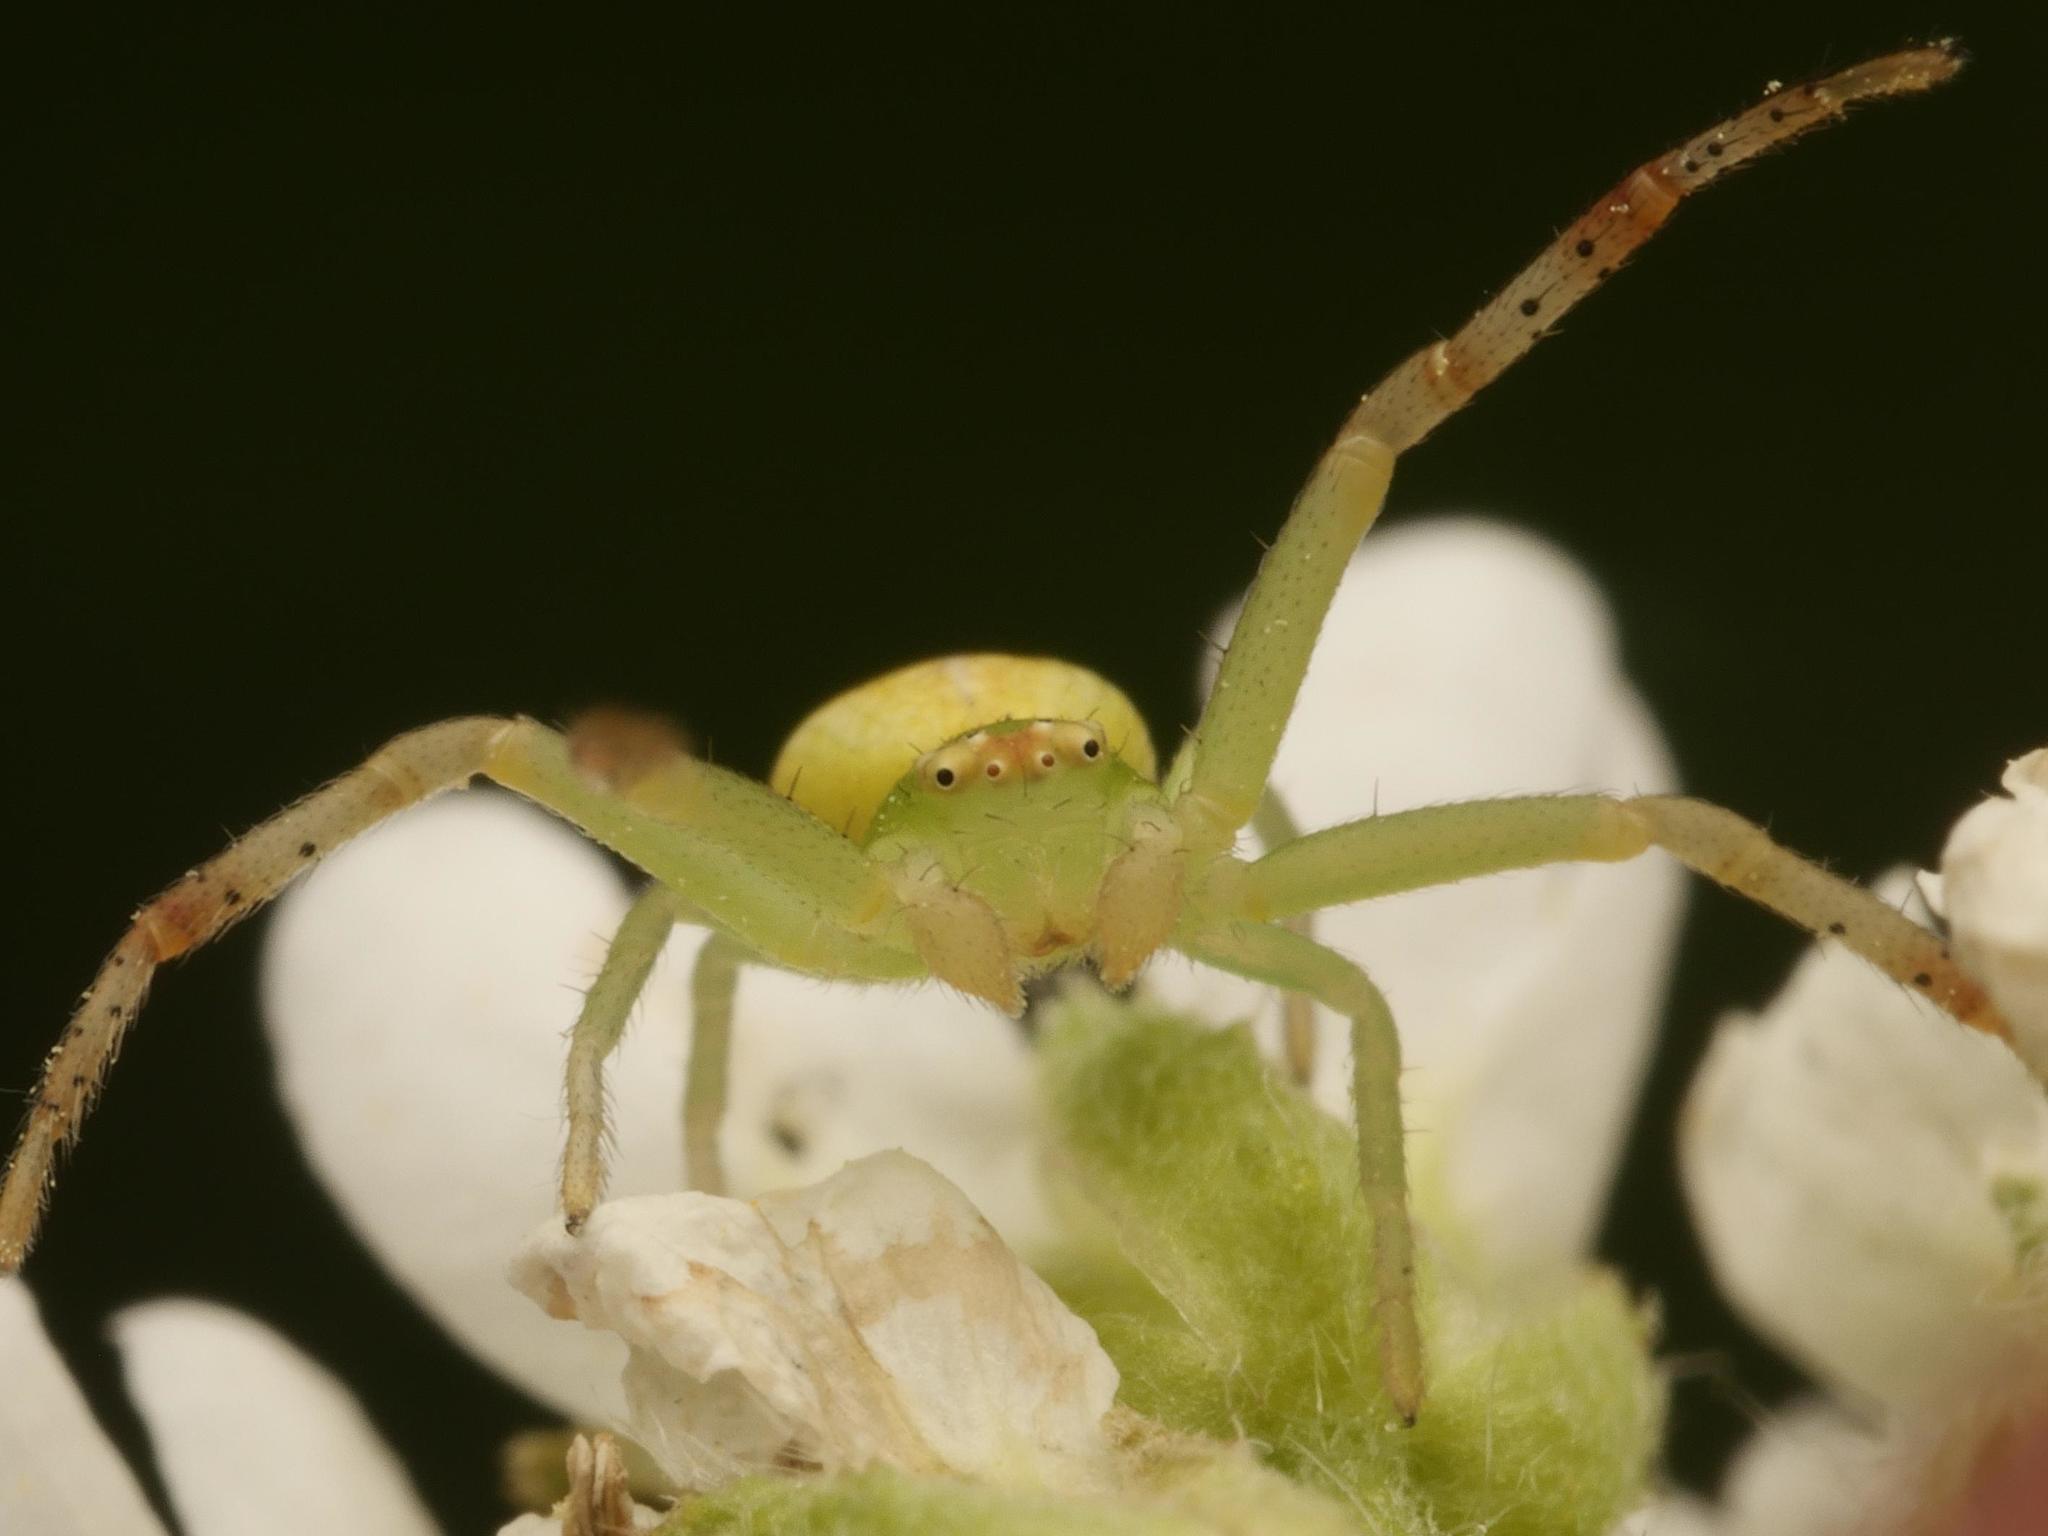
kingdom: Animalia
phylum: Arthropoda
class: Arachnida
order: Araneae
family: Thomisidae
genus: Ebrechtella
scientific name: Ebrechtella tricuspidata
